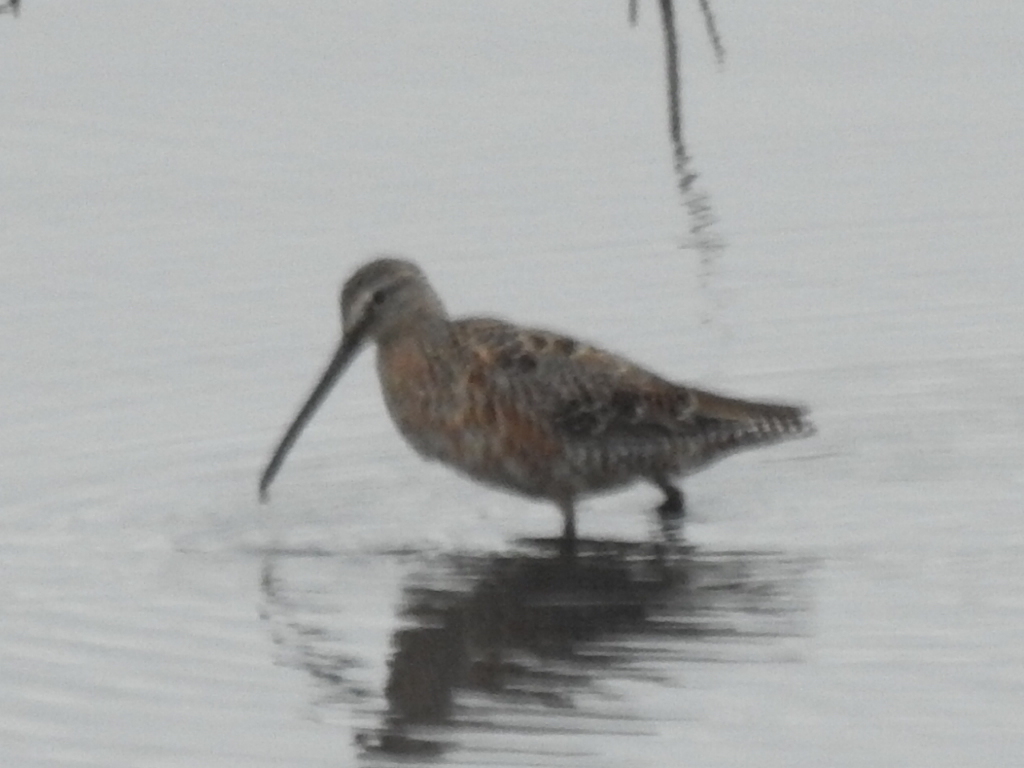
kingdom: Animalia
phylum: Chordata
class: Aves
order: Charadriiformes
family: Scolopacidae
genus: Limnodromus
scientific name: Limnodromus scolopaceus
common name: Long-billed dowitcher
